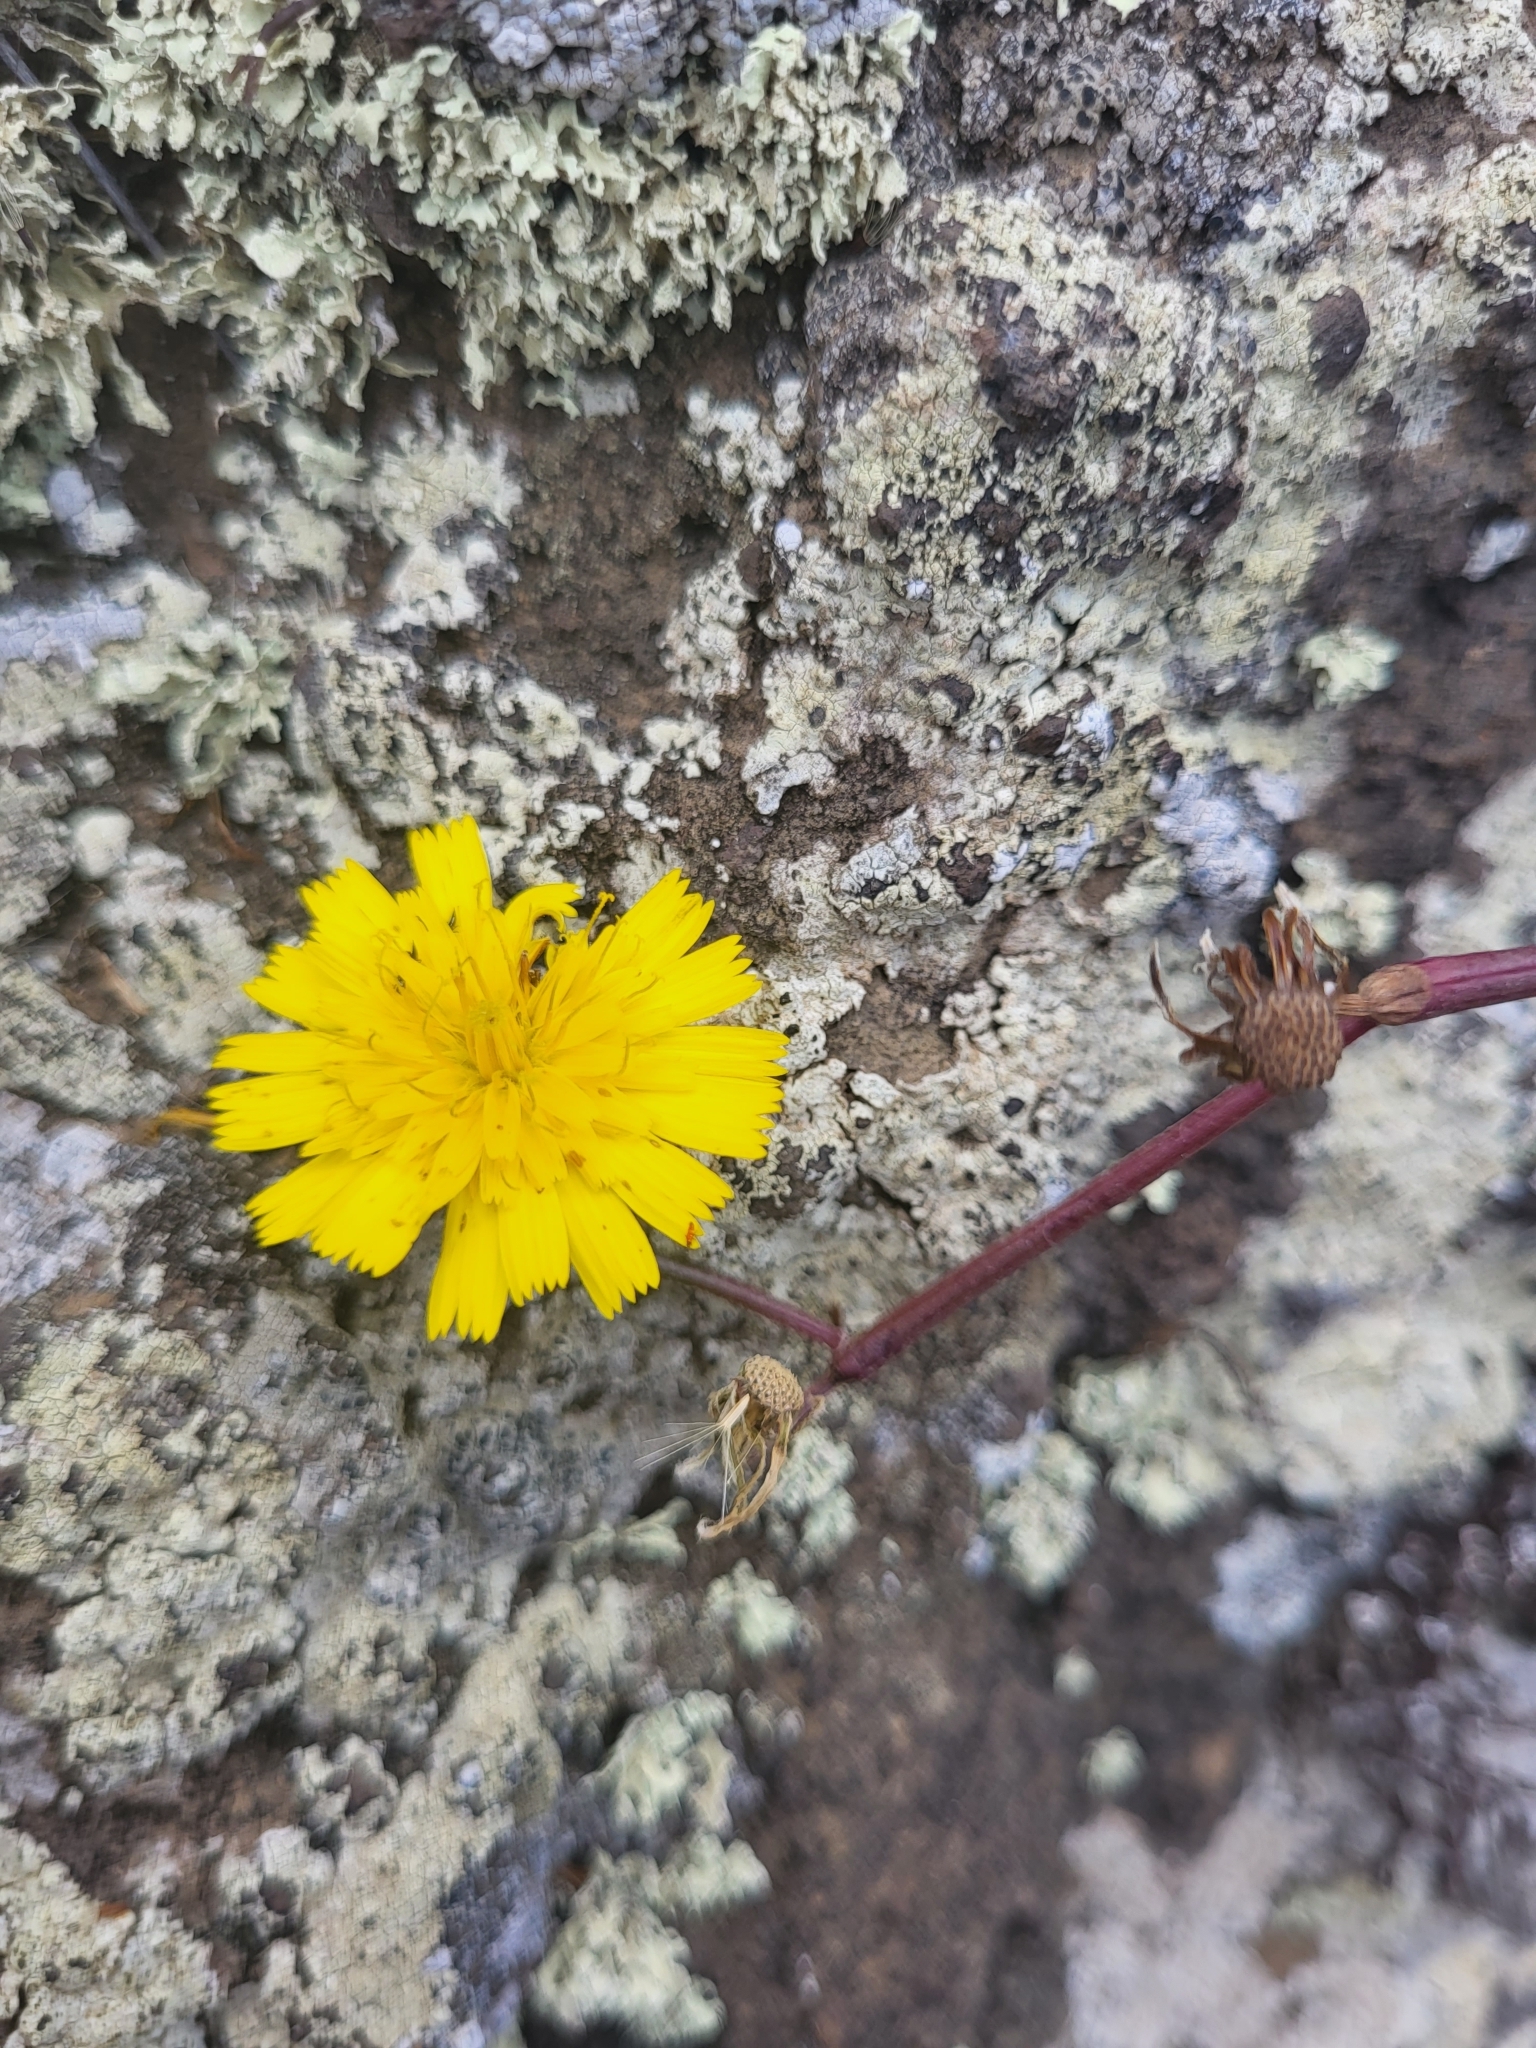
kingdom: Plantae
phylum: Tracheophyta
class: Magnoliopsida
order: Asterales
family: Asteraceae
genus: Tolpis
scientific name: Tolpis succulenta
